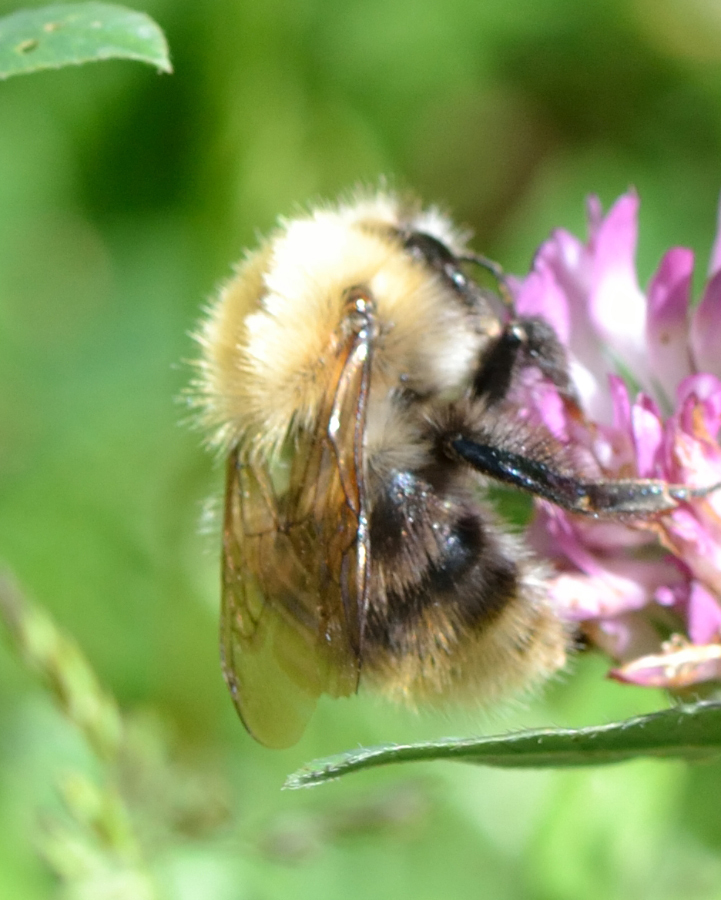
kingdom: Animalia
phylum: Arthropoda
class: Insecta
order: Hymenoptera
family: Apidae
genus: Bombus
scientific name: Bombus pascuorum
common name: Common carder bee
